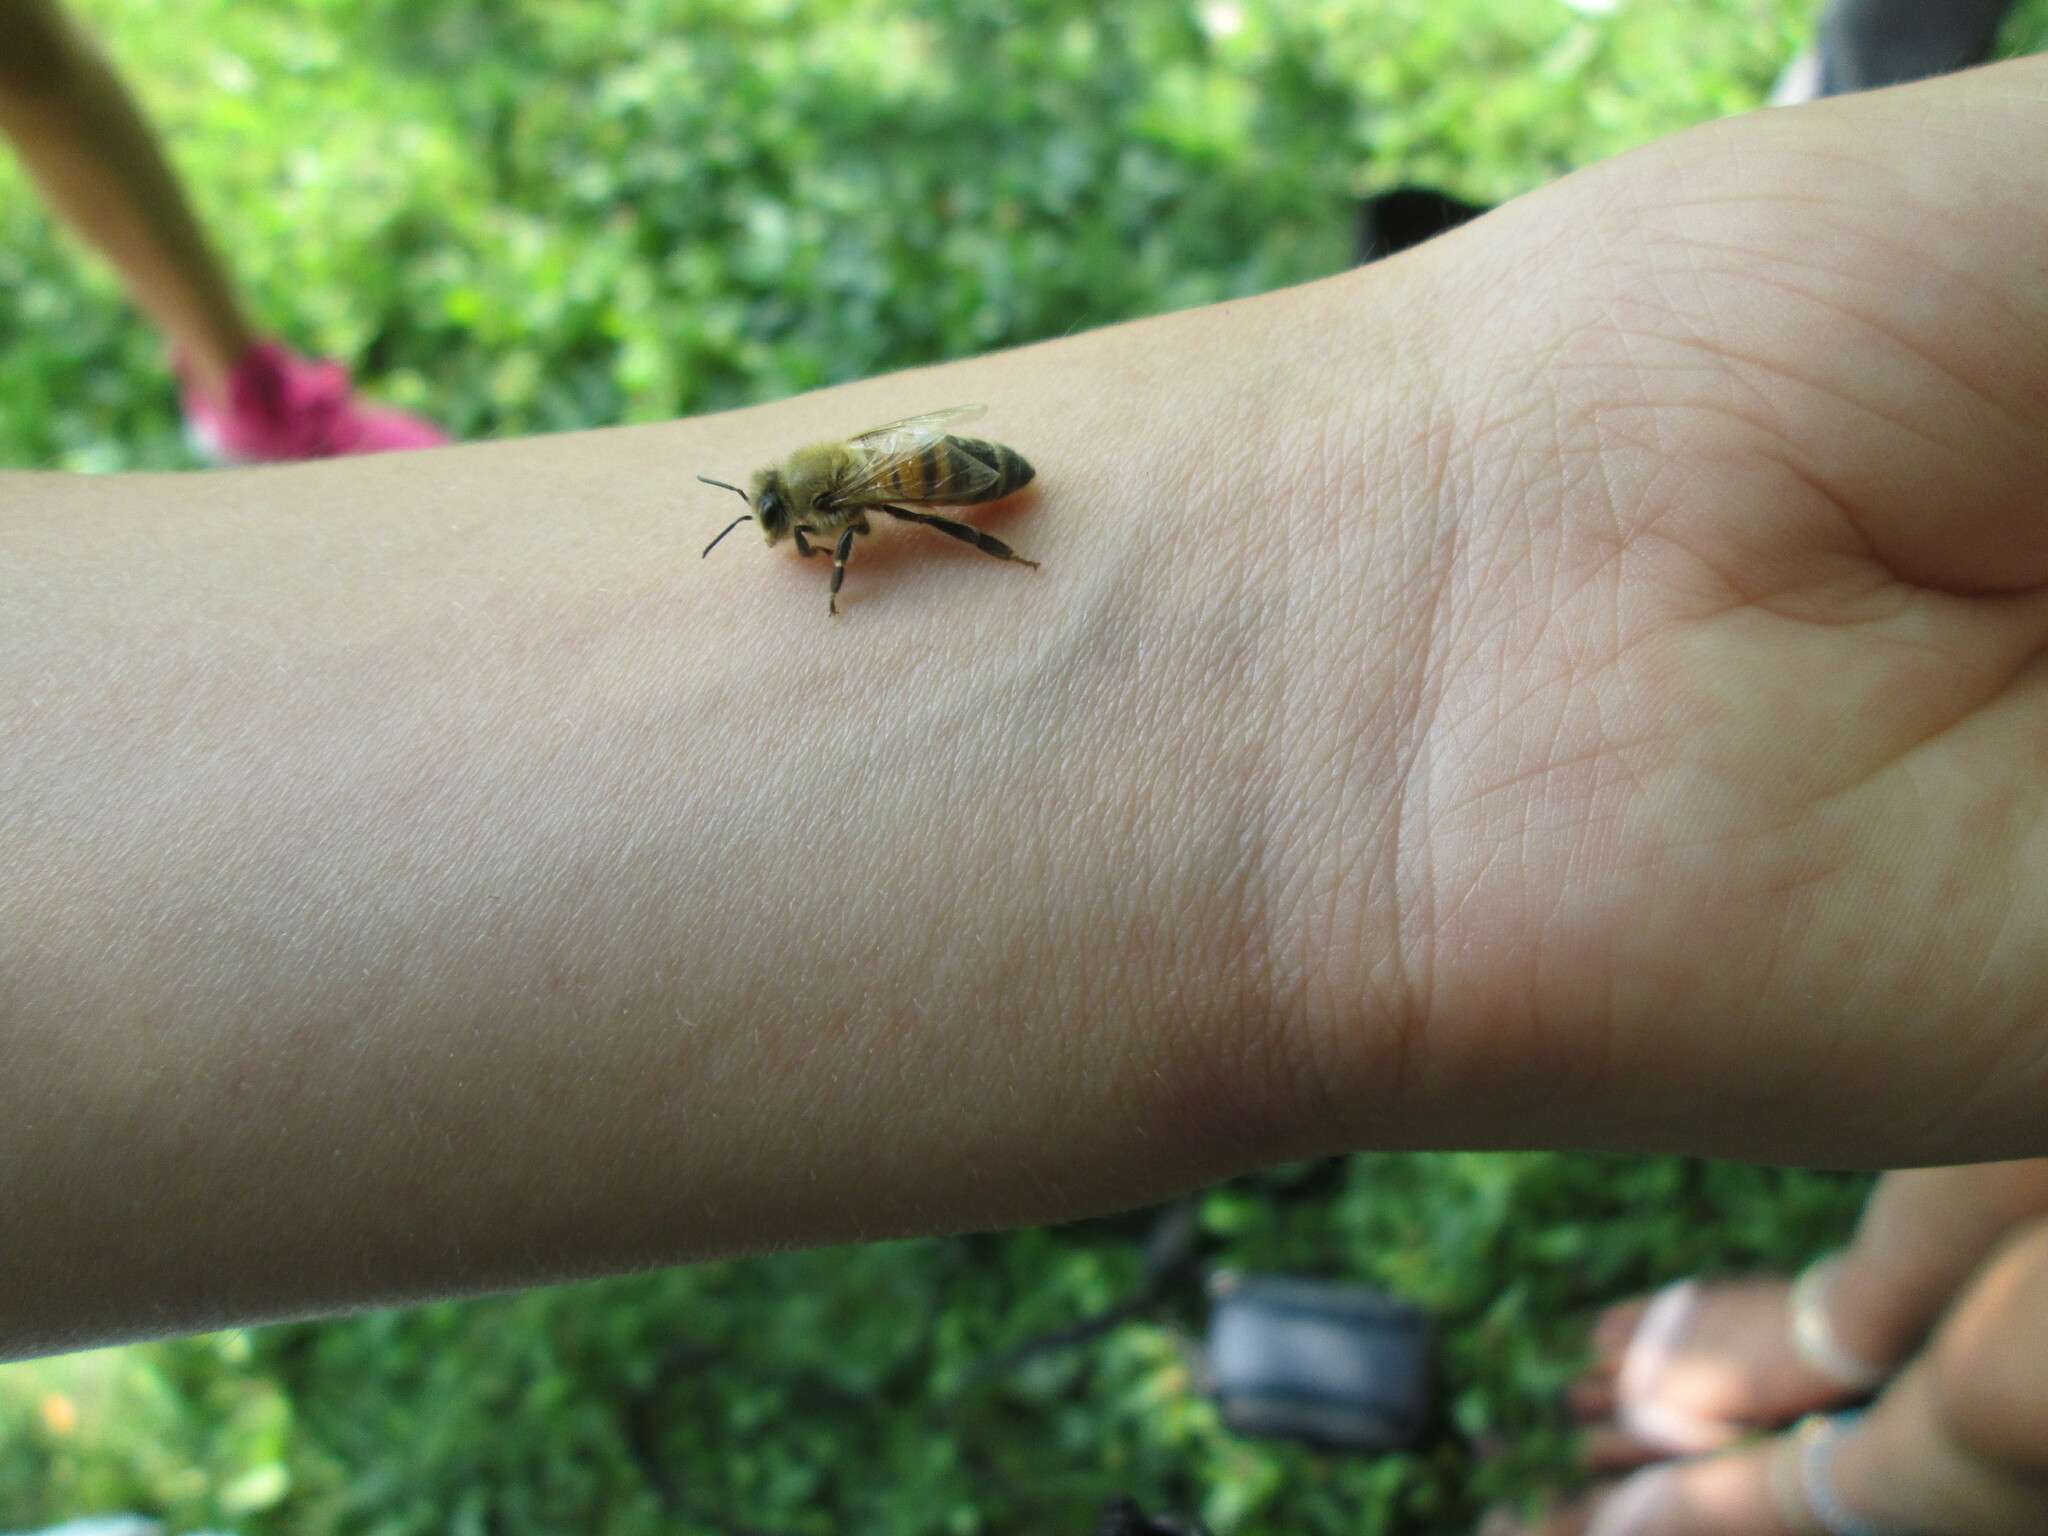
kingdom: Animalia
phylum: Arthropoda
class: Insecta
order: Hymenoptera
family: Apidae
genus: Apis
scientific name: Apis mellifera
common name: Honey bee
